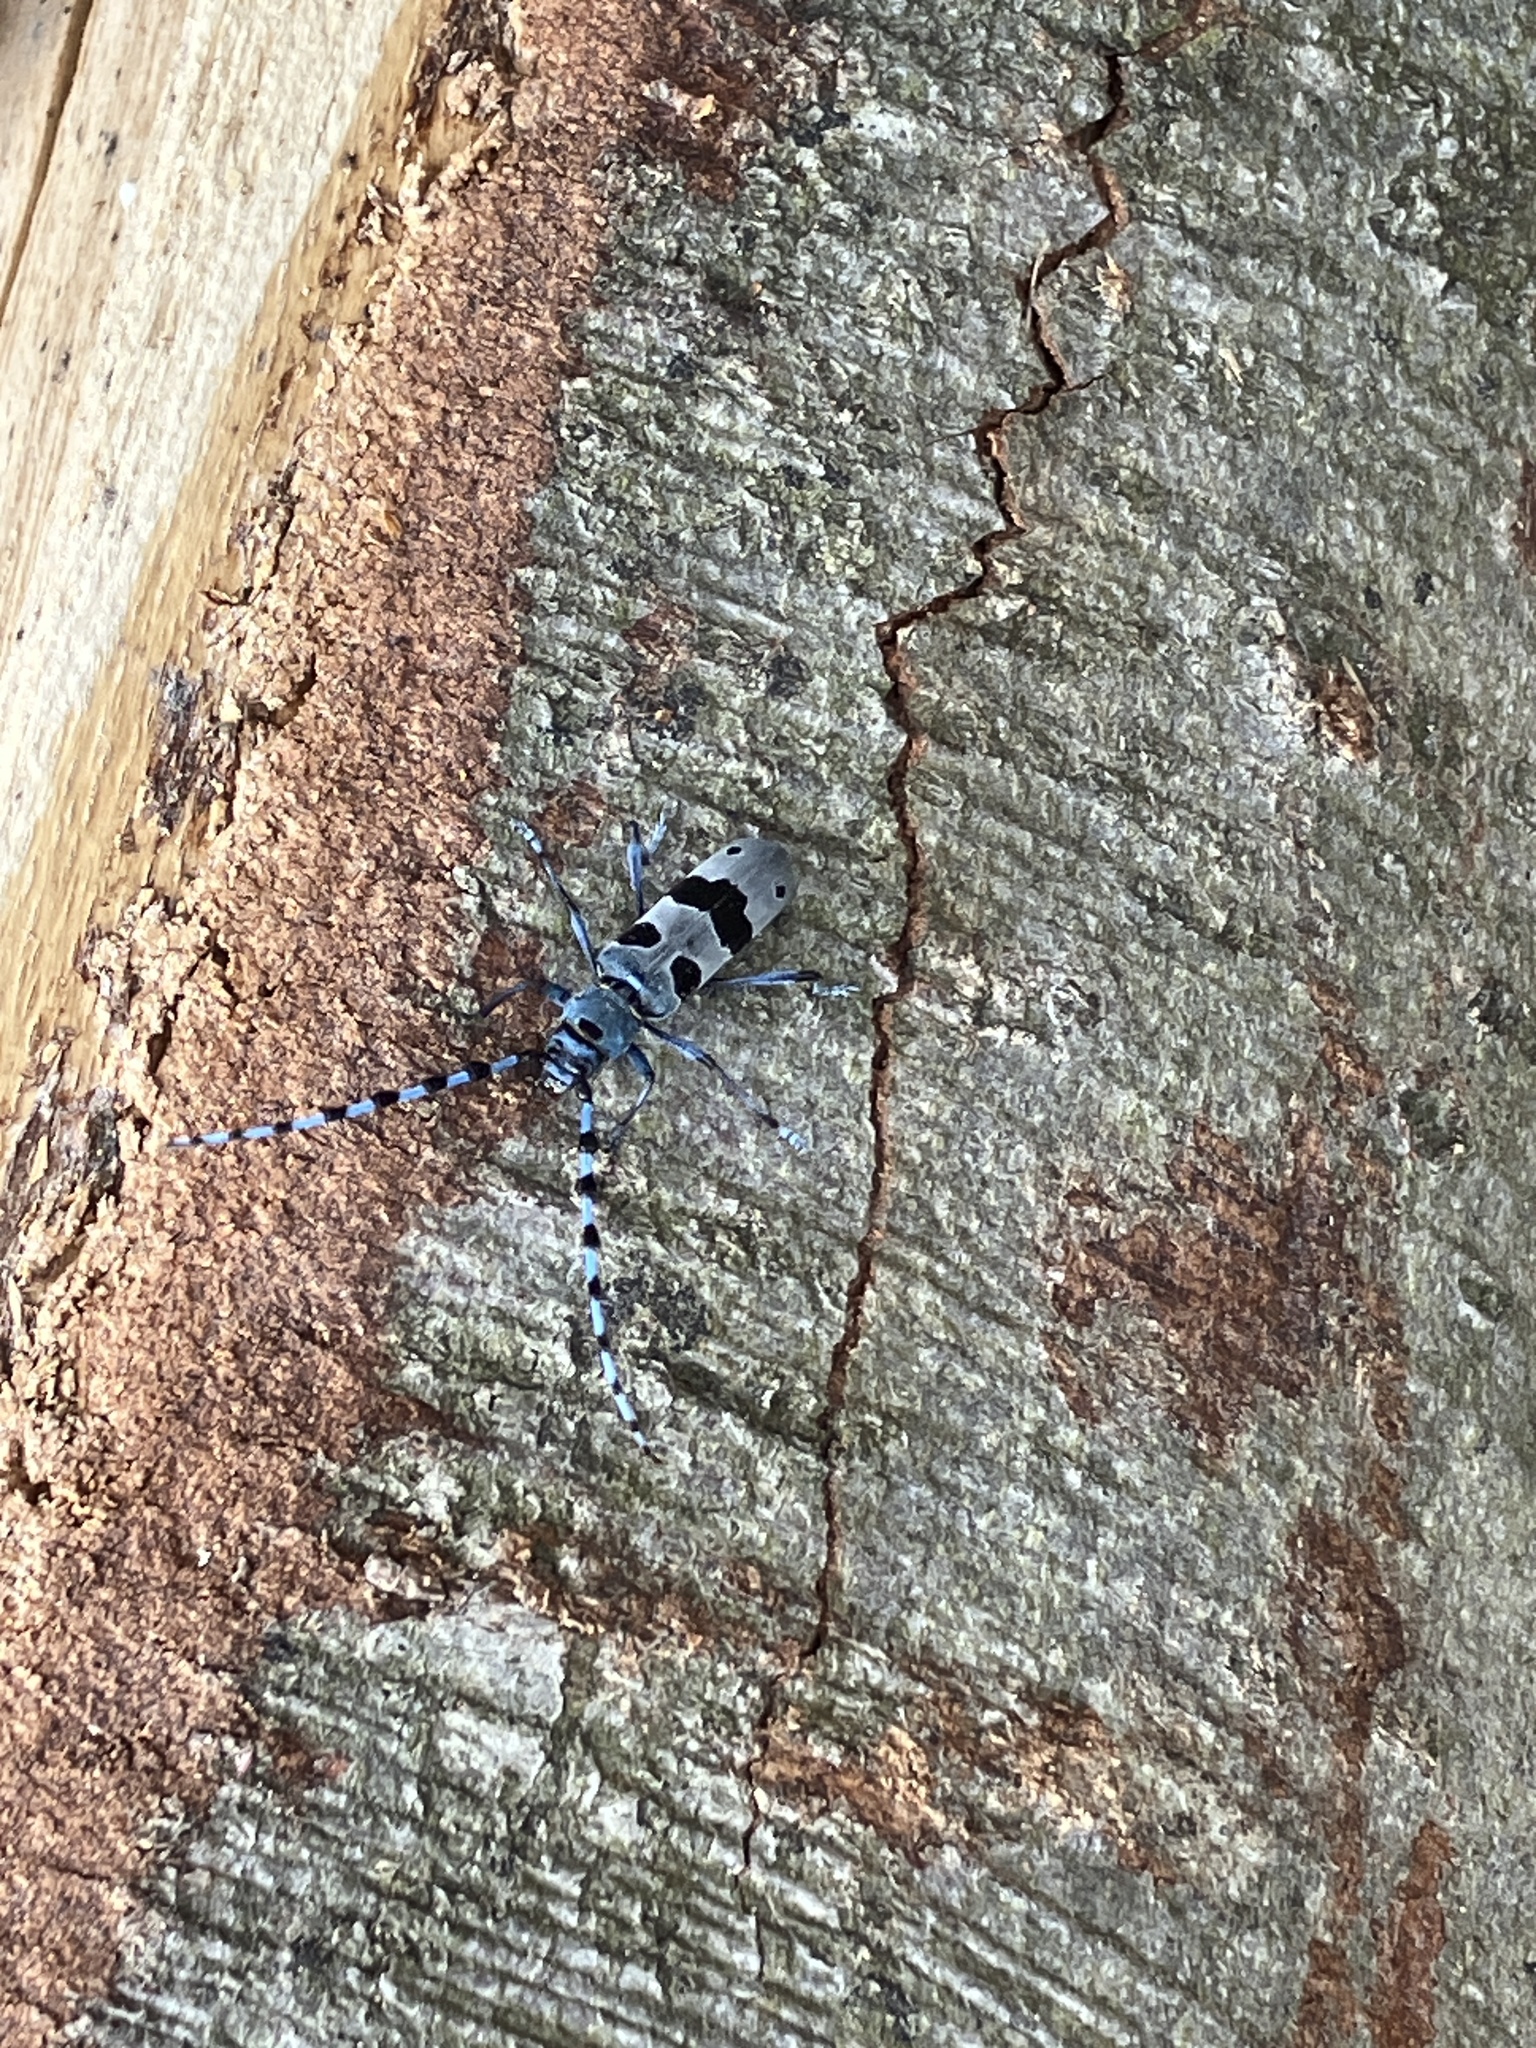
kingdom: Animalia
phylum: Arthropoda
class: Insecta
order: Coleoptera
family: Cerambycidae
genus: Rosalia
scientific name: Rosalia alpina
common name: Rosalia longicorn
